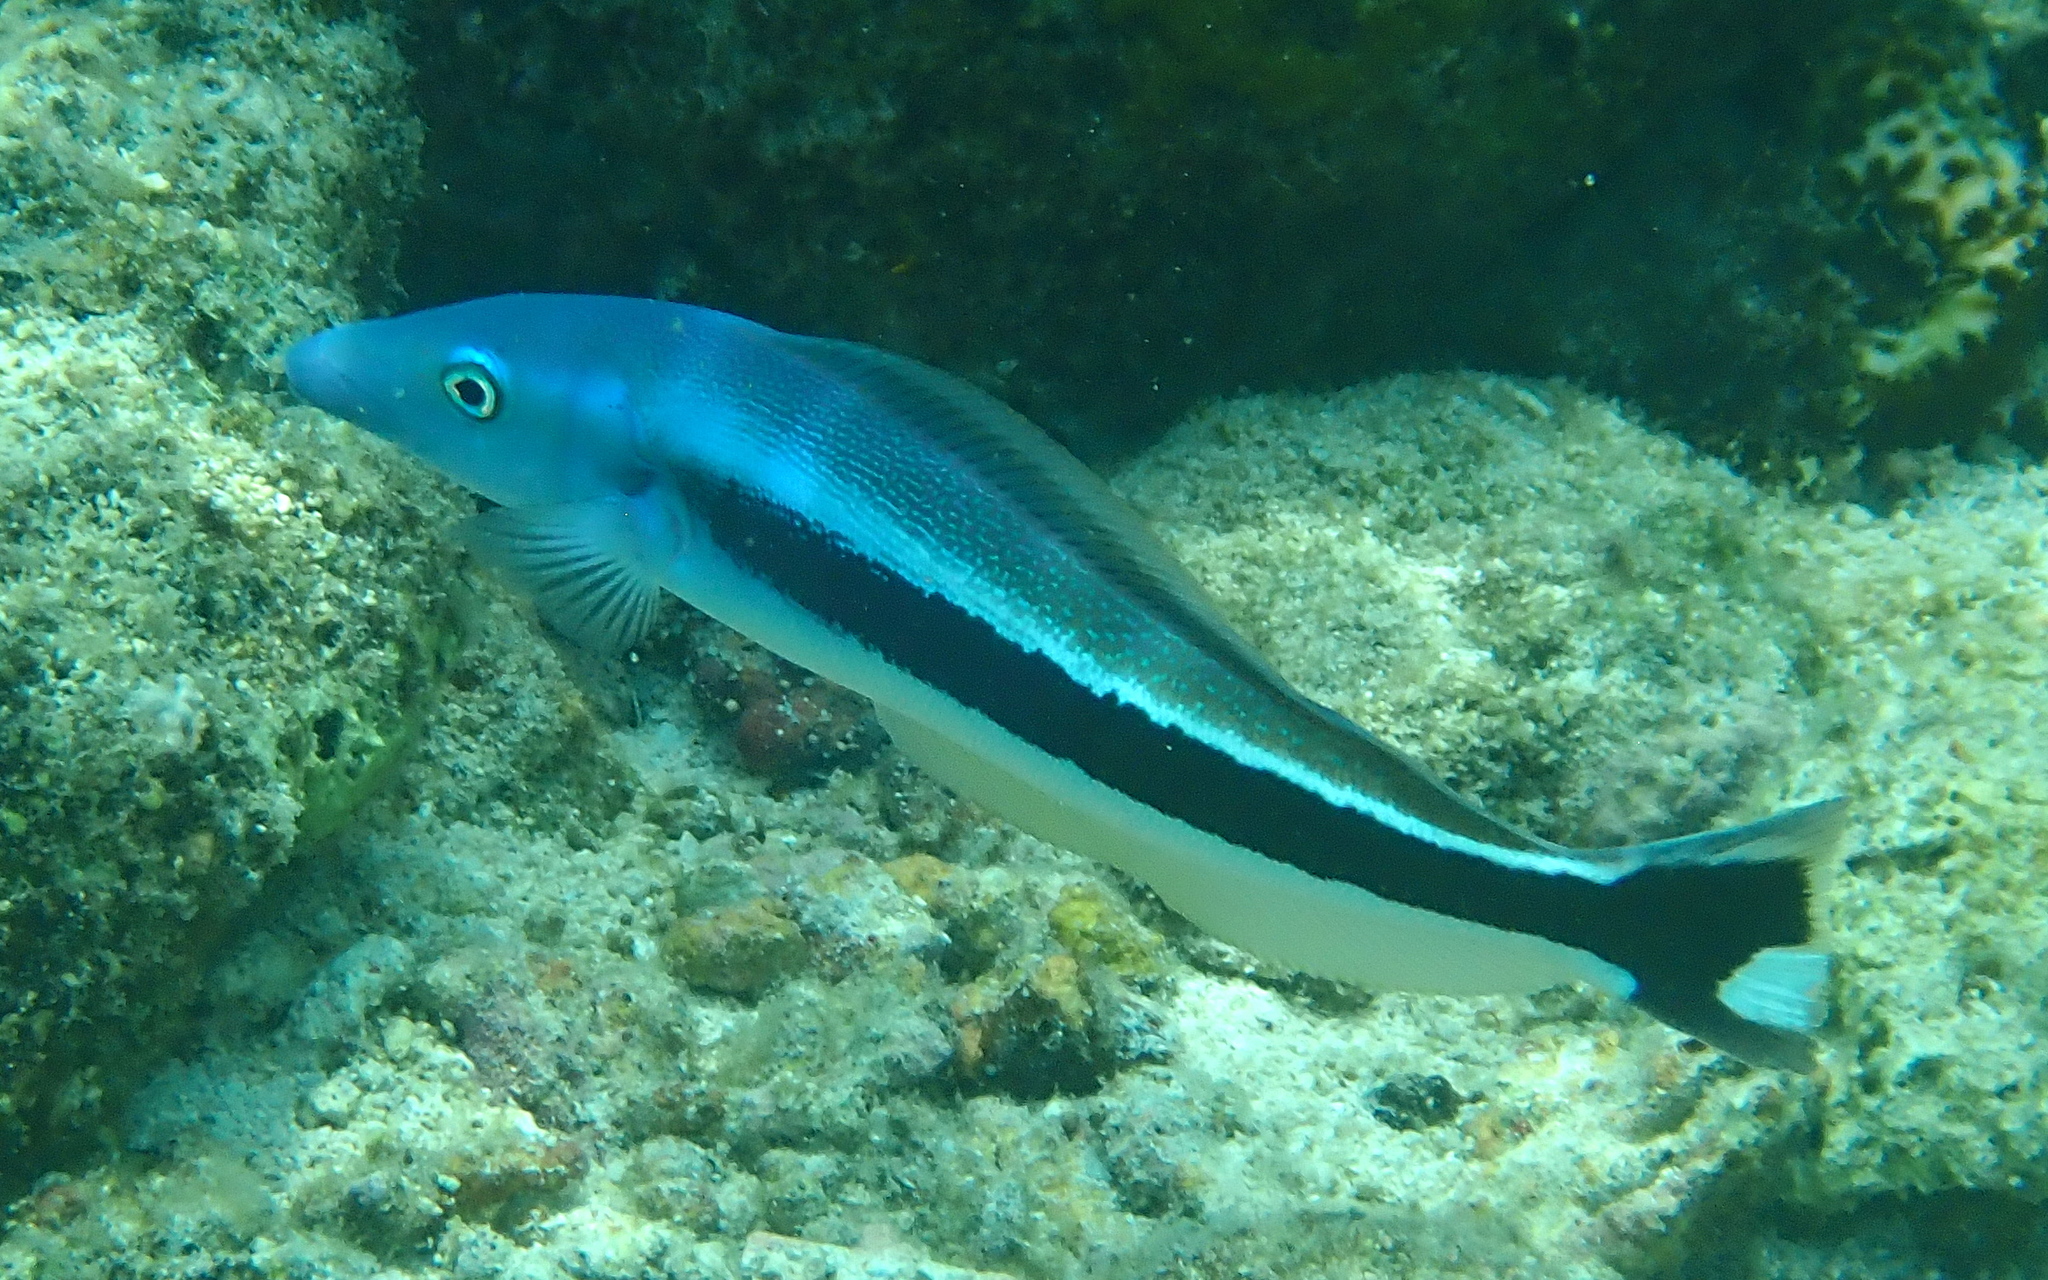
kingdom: Animalia
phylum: Chordata
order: Perciformes
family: Malacanthidae
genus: Malacanthus
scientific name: Malacanthus latovittatus
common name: Blue blanquillo
